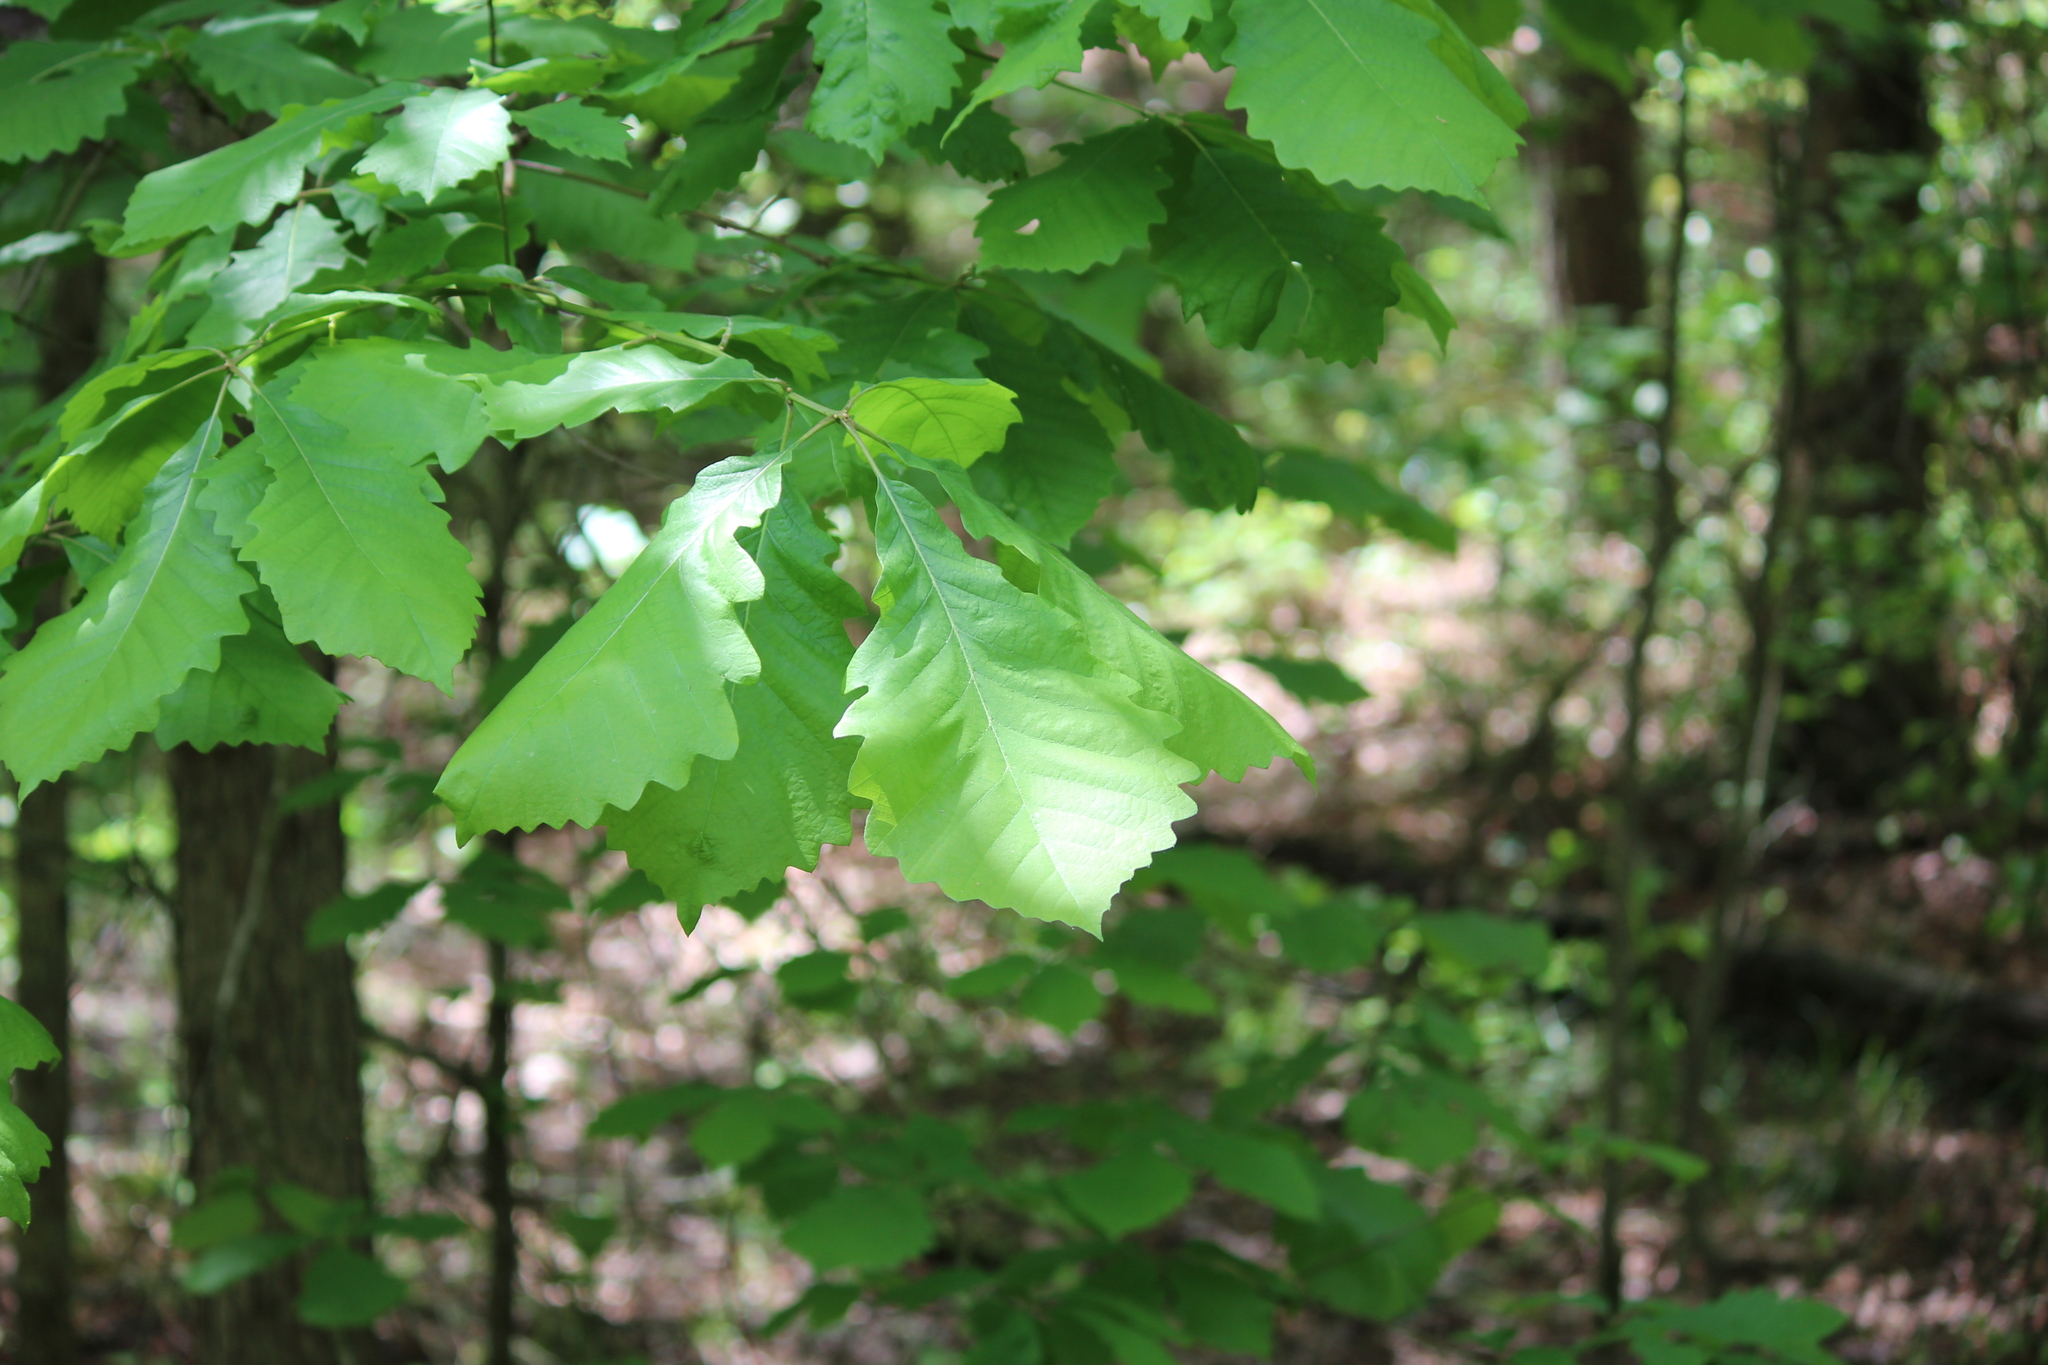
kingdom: Plantae
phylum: Tracheophyta
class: Magnoliopsida
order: Fagales
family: Fagaceae
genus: Quercus
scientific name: Quercus michauxii
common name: Swamp chestnut oak
